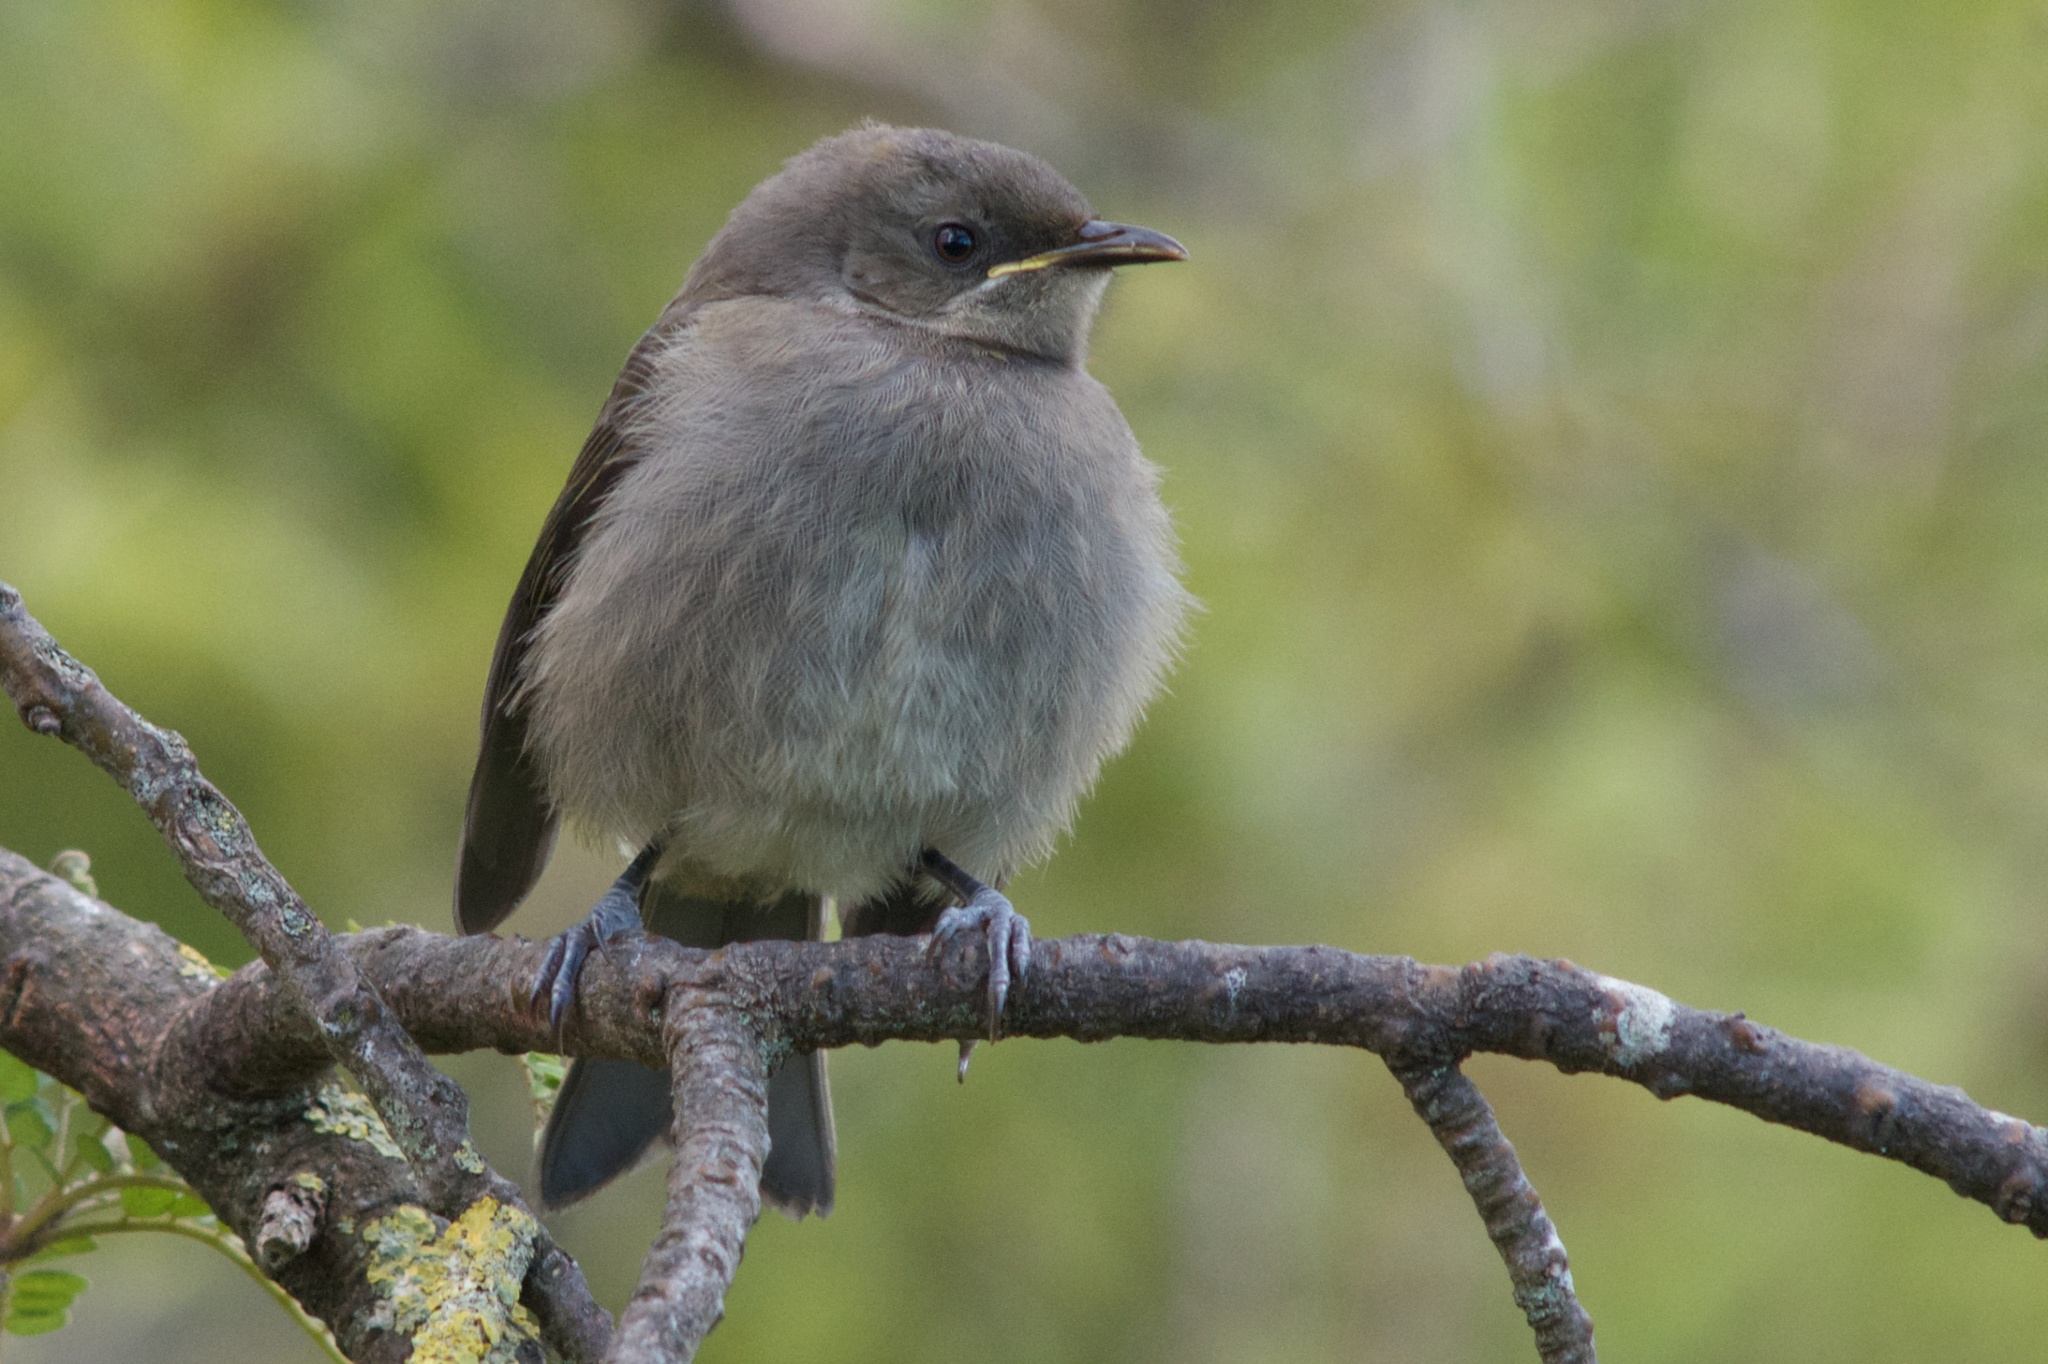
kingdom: Animalia
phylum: Chordata
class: Aves
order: Passeriformes
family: Meliphagidae
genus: Anthornis
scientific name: Anthornis melanura
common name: New zealand bellbird
